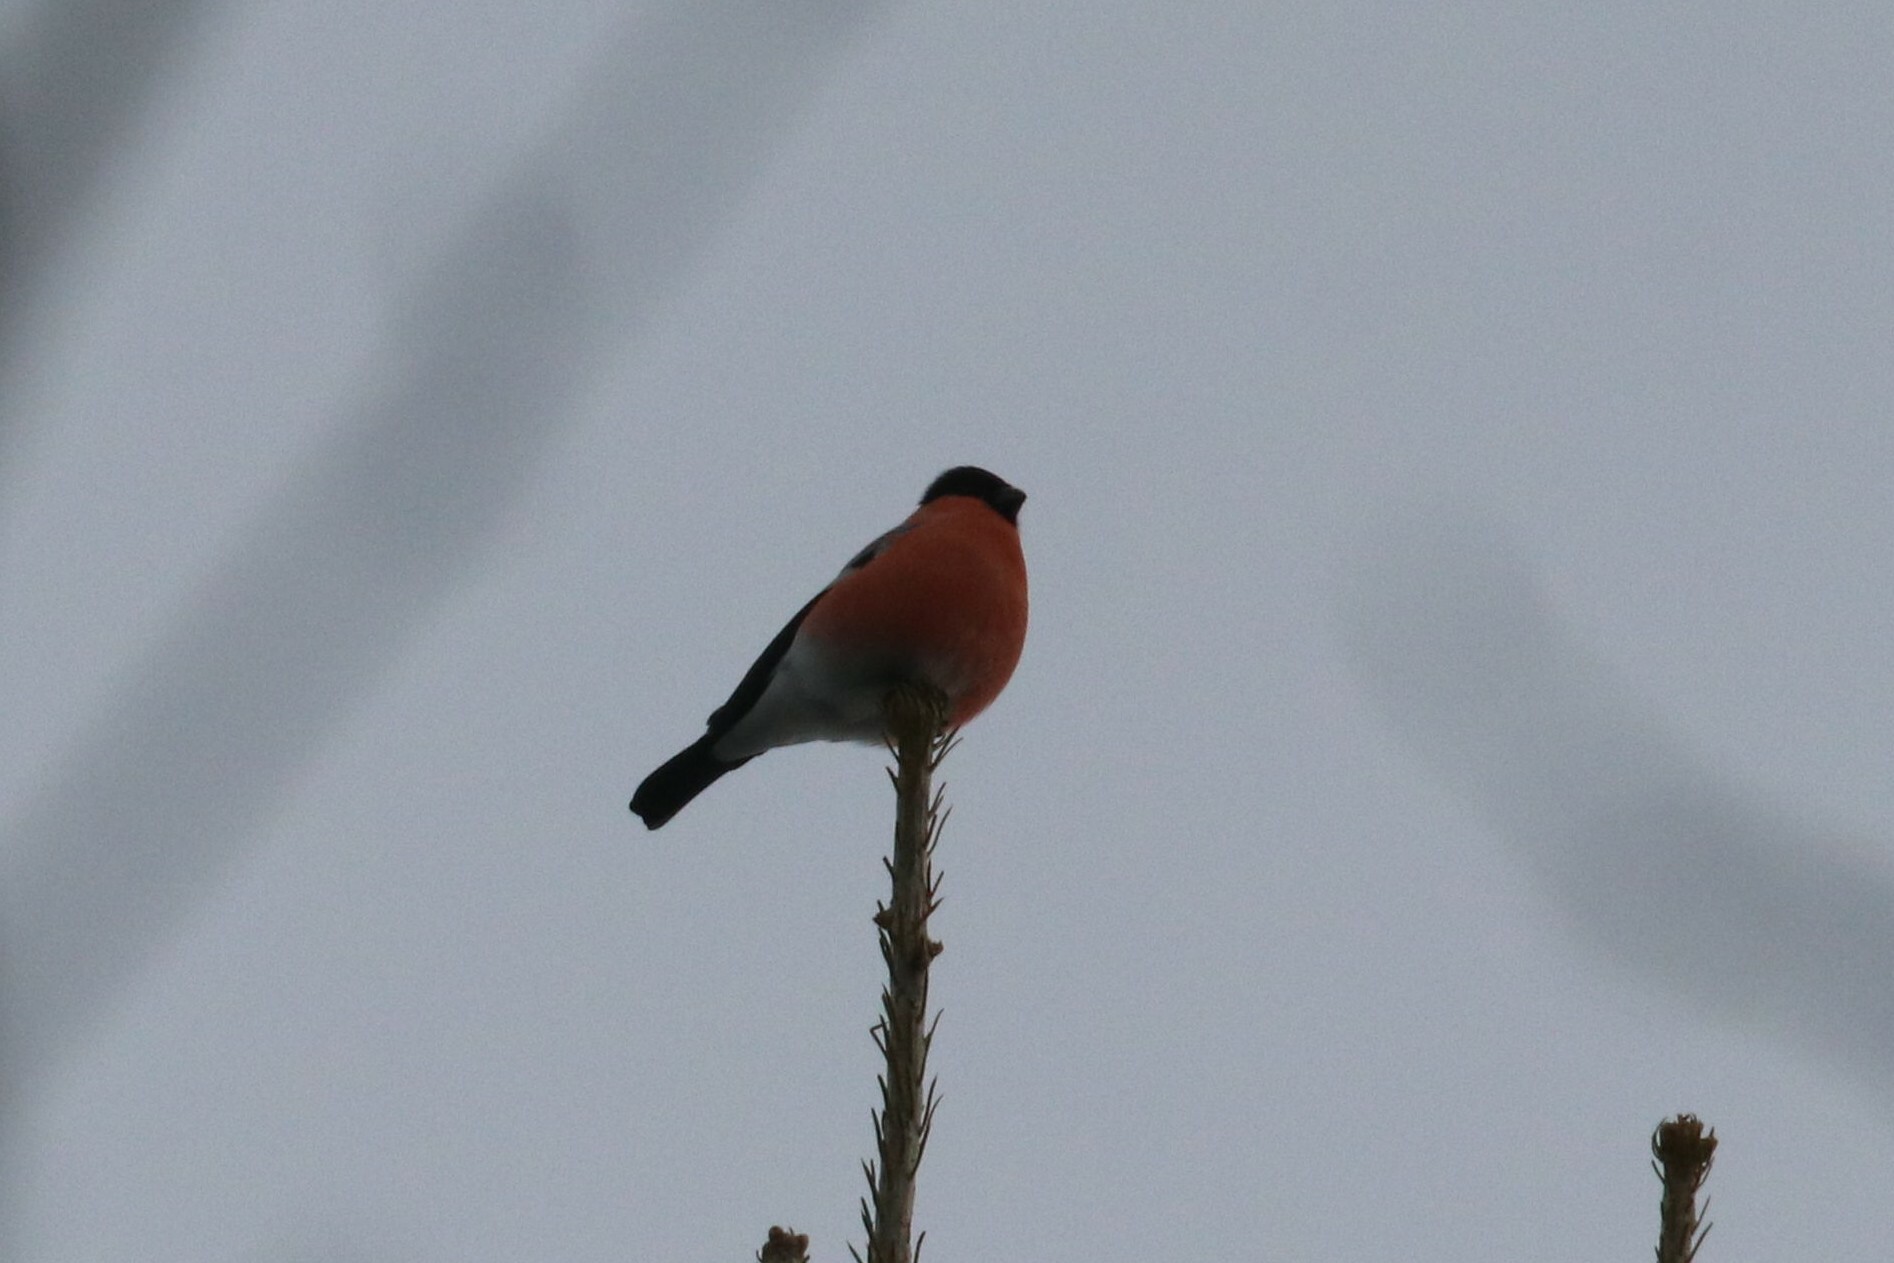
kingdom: Animalia
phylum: Chordata
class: Aves
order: Passeriformes
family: Fringillidae
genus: Pyrrhula
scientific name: Pyrrhula pyrrhula
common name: Eurasian bullfinch
